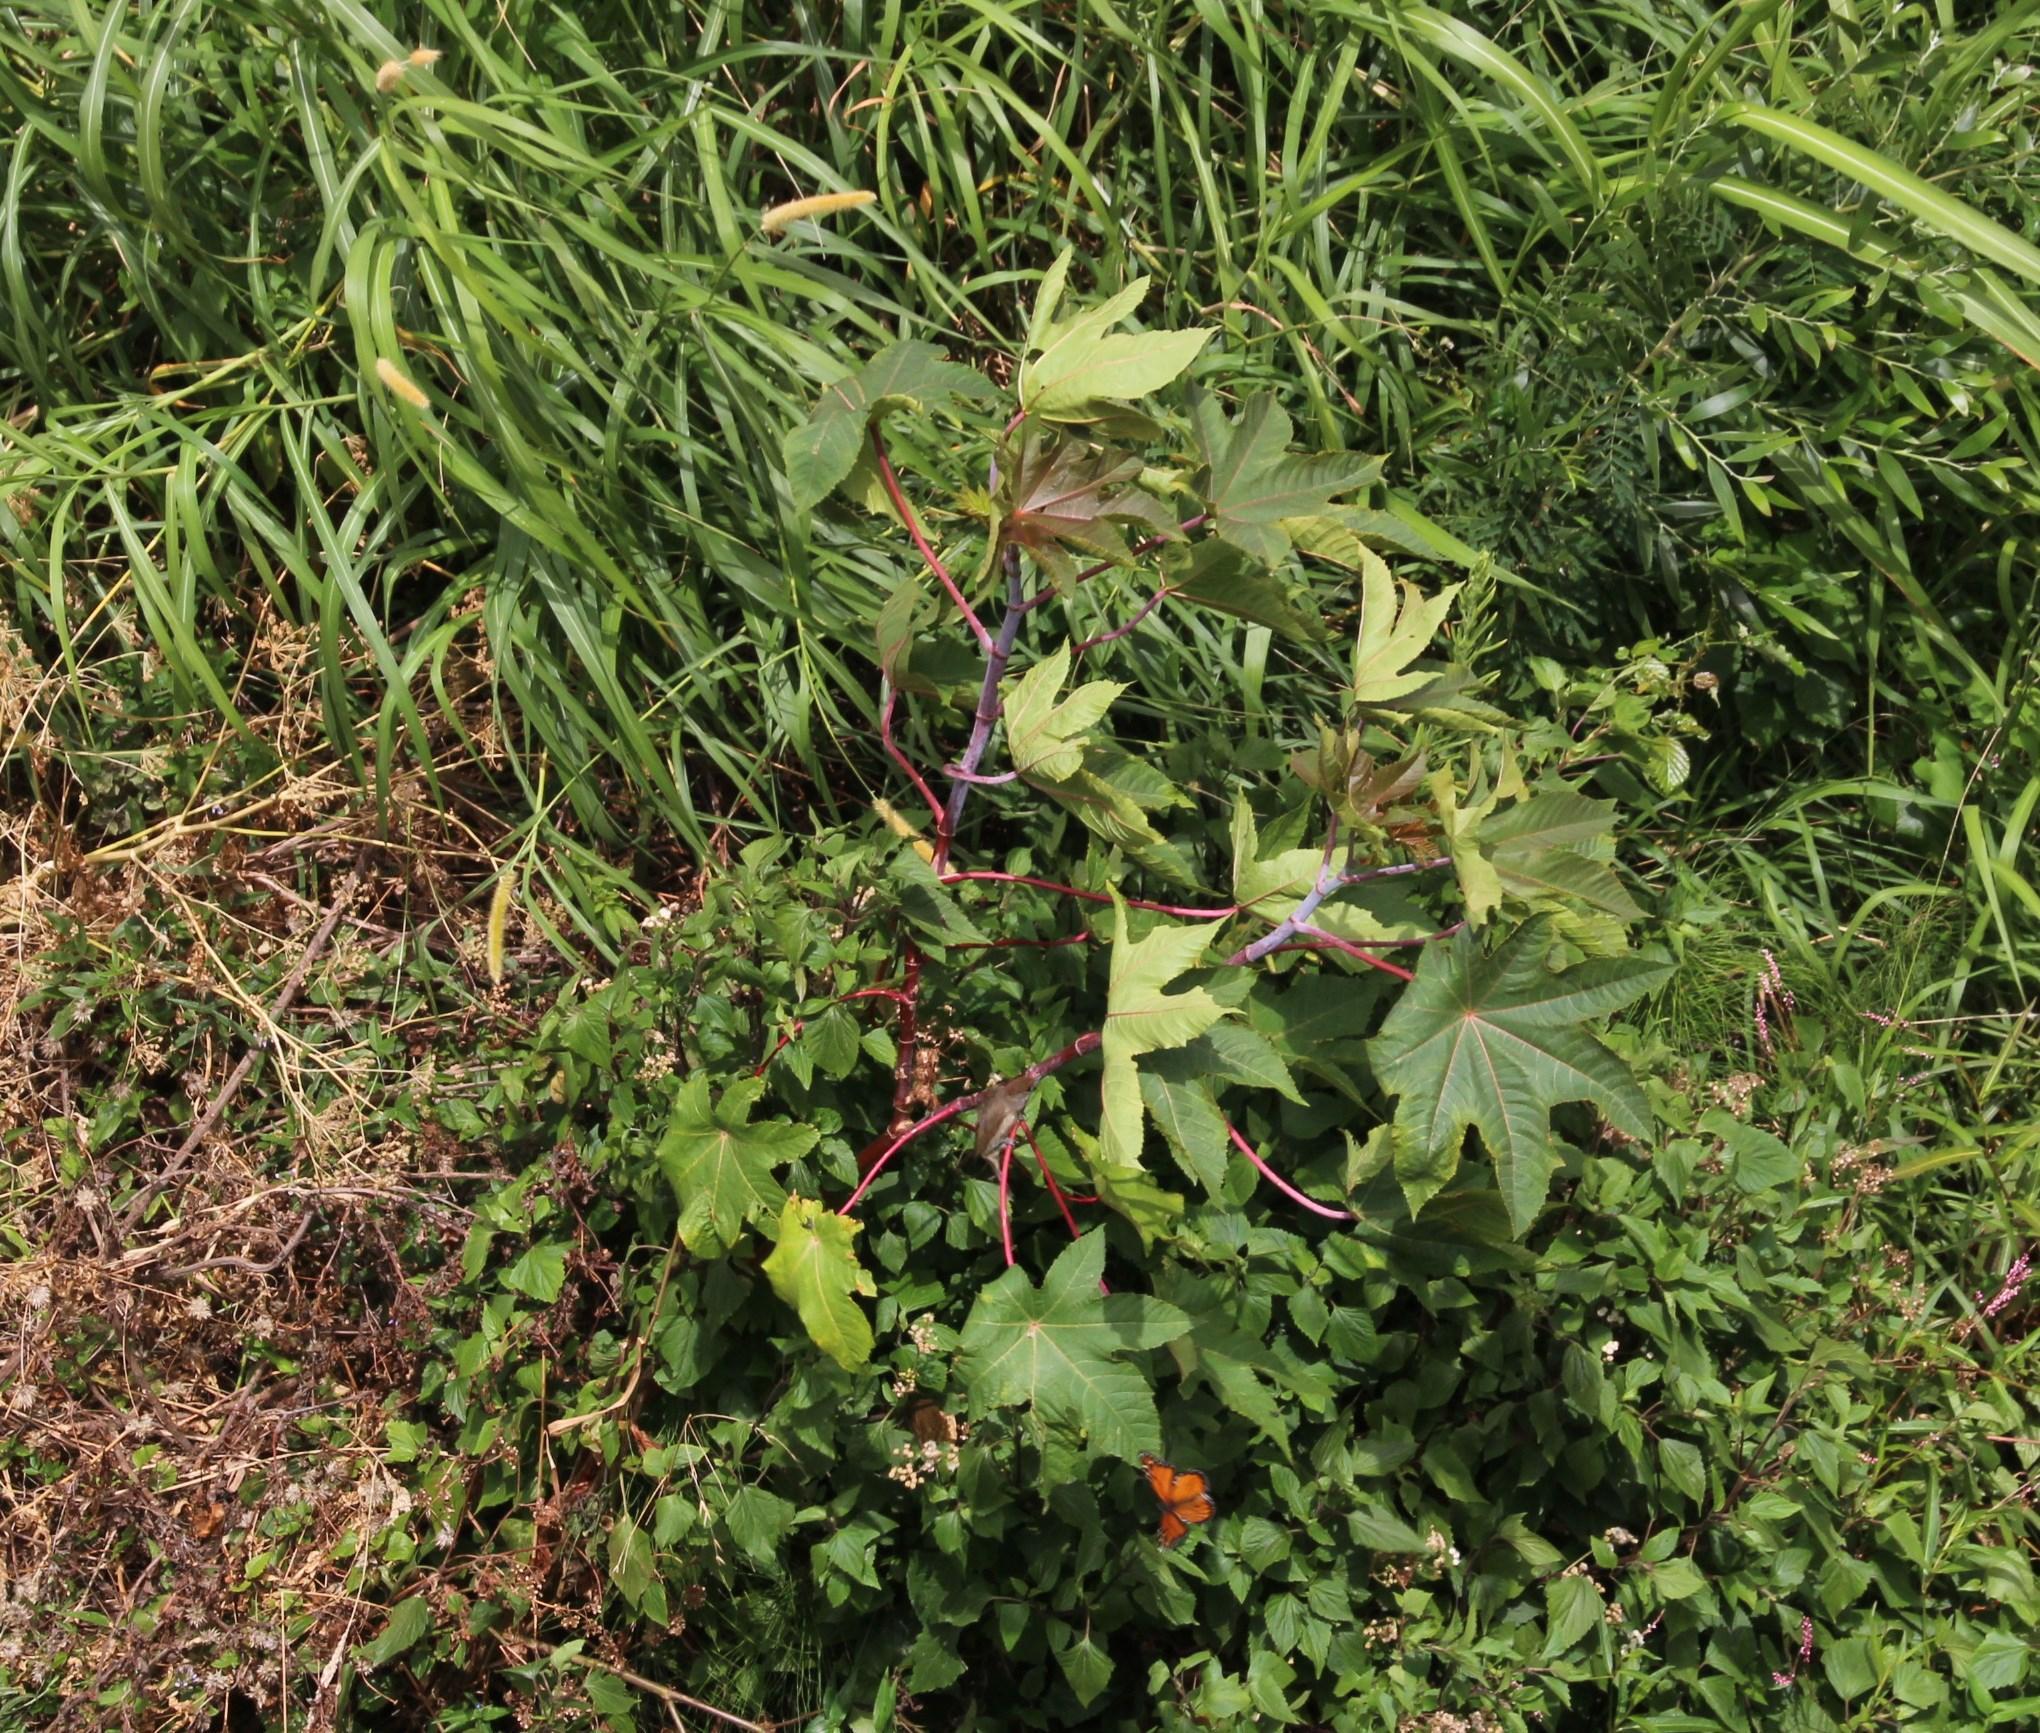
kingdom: Plantae
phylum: Tracheophyta
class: Magnoliopsida
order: Malpighiales
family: Euphorbiaceae
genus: Ricinus
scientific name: Ricinus communis
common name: Castor-oil-plant
